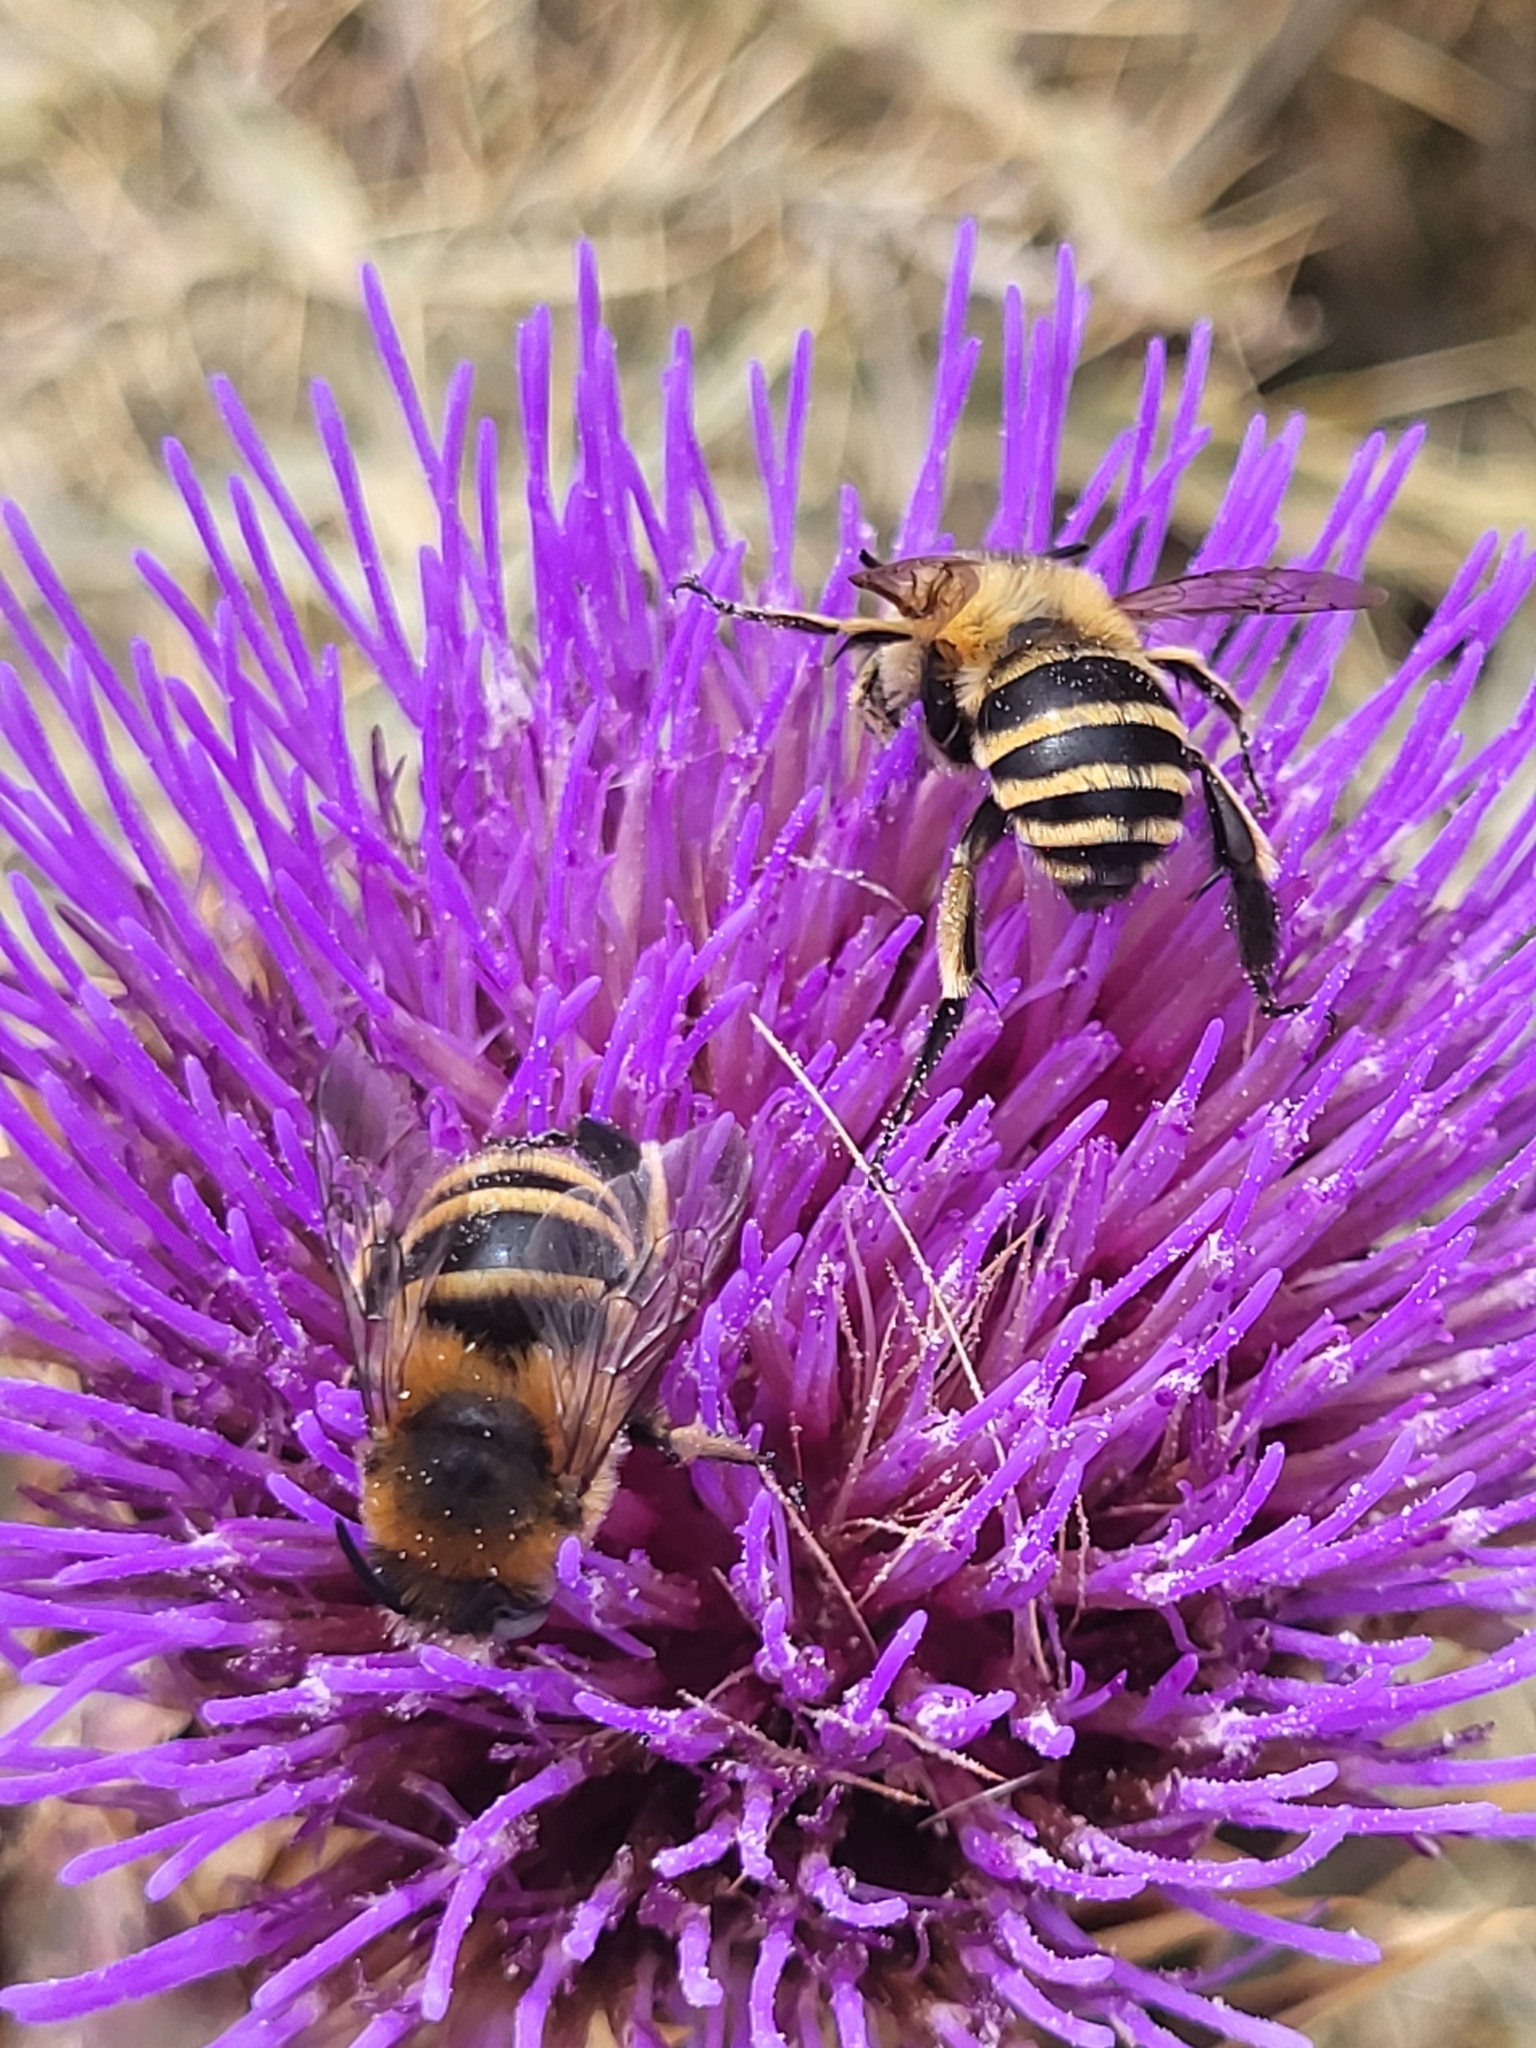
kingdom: Animalia
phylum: Arthropoda
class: Insecta
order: Hymenoptera
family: Apidae
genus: Amegilla
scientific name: Amegilla quadrifasciata
